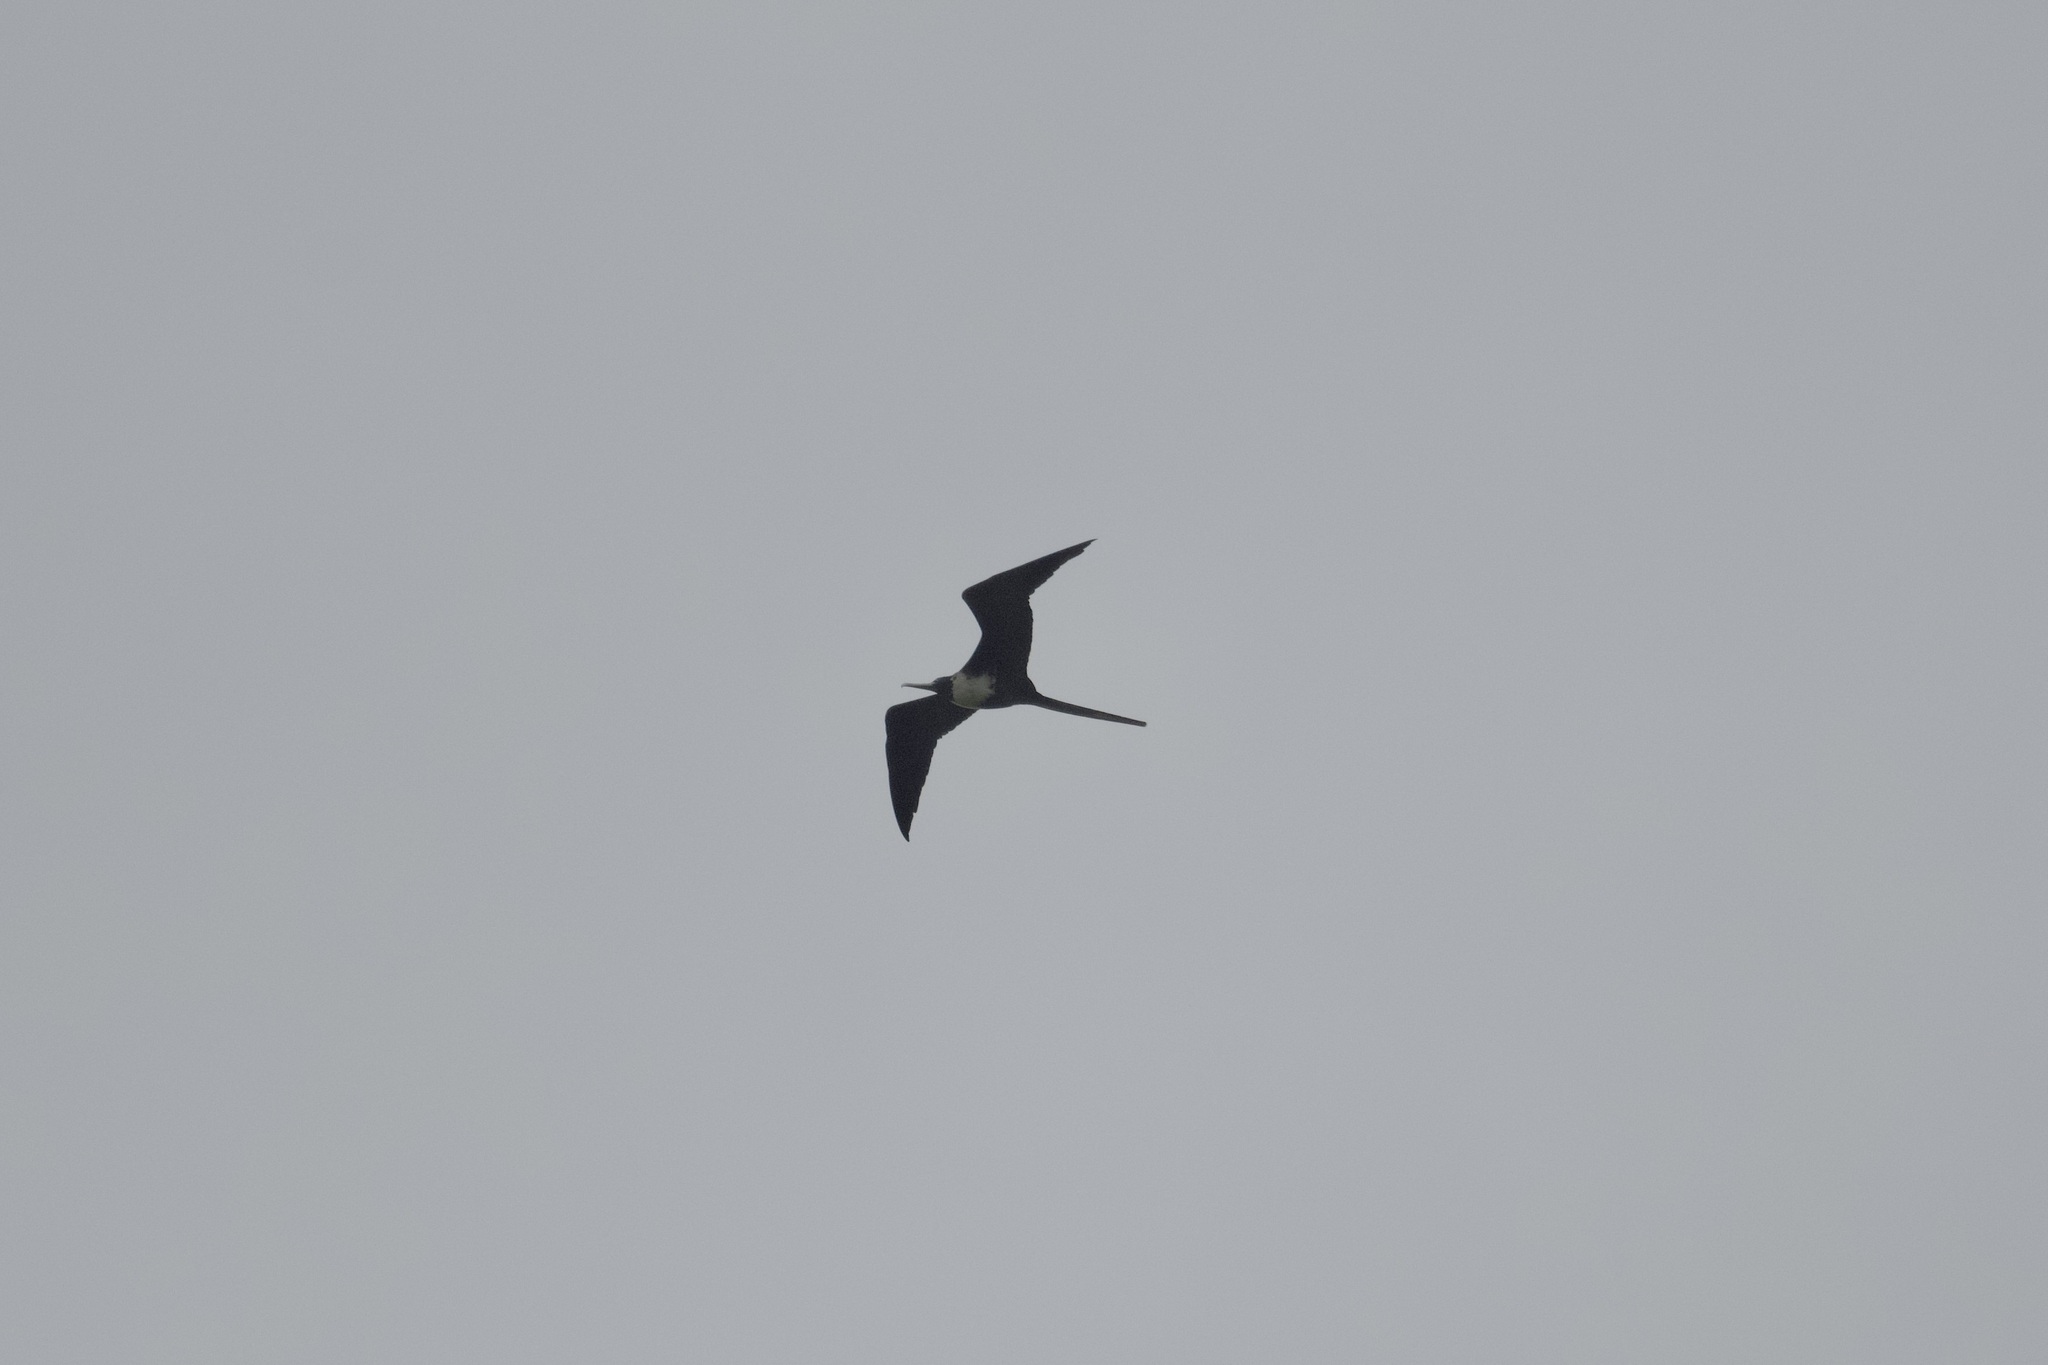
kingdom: Animalia
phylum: Chordata
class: Aves
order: Suliformes
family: Fregatidae
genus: Fregata
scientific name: Fregata magnificens
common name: Magnificent frigatebird
